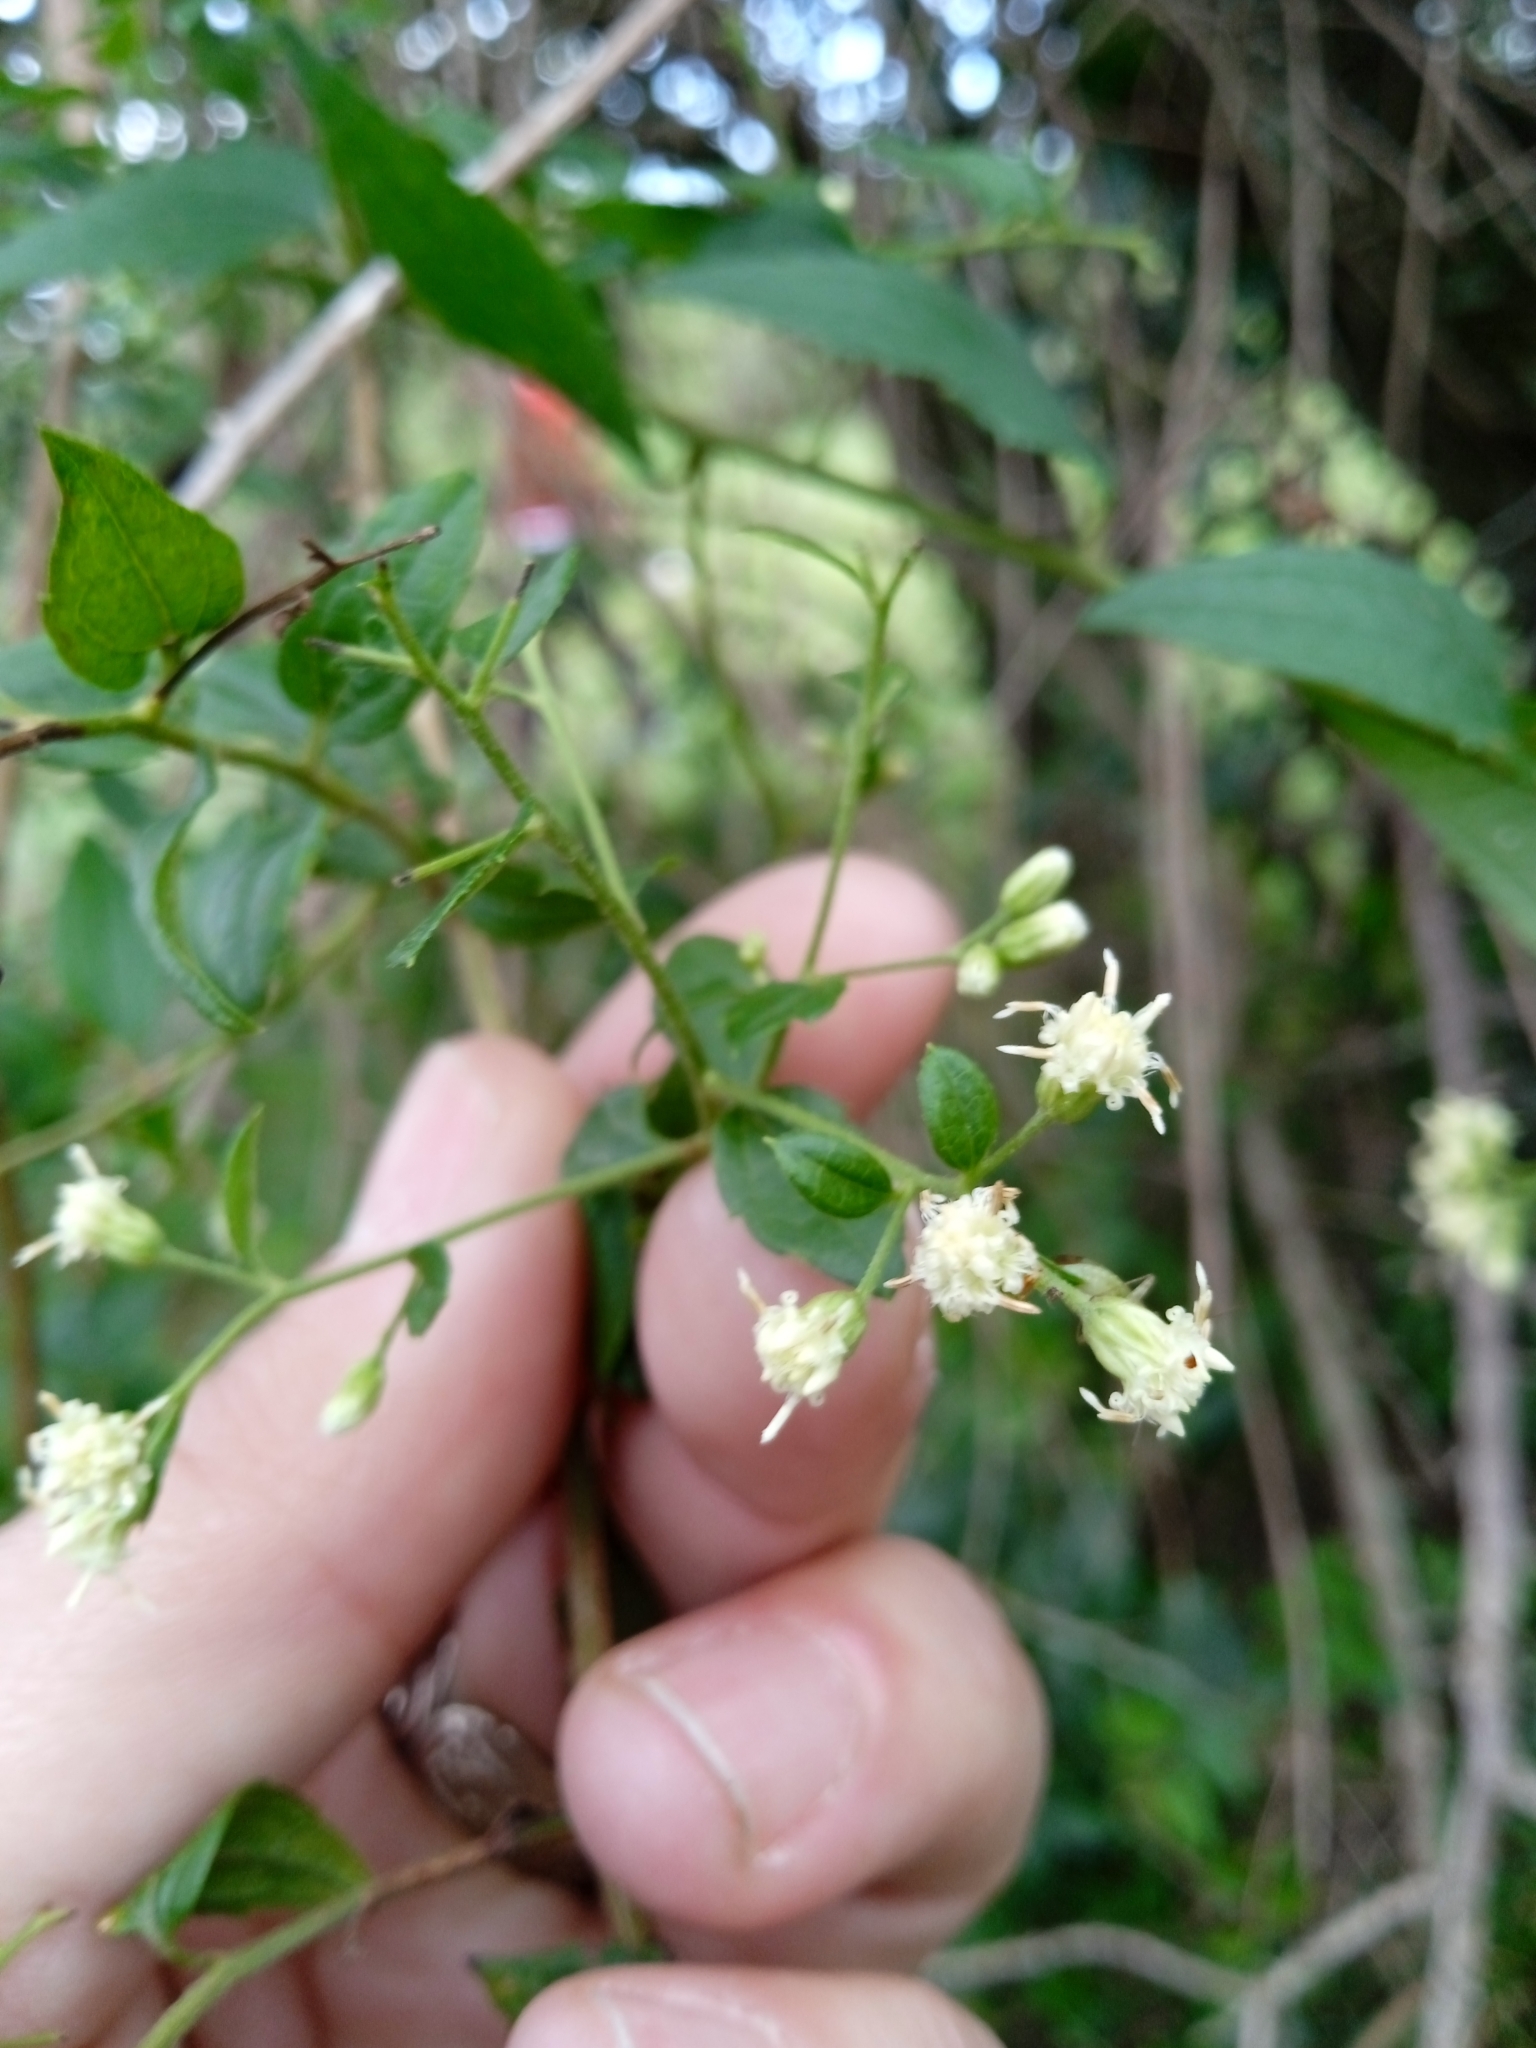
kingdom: Plantae
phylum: Tracheophyta
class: Magnoliopsida
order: Asterales
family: Asteraceae
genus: Baccharis
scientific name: Baccharis anomala
